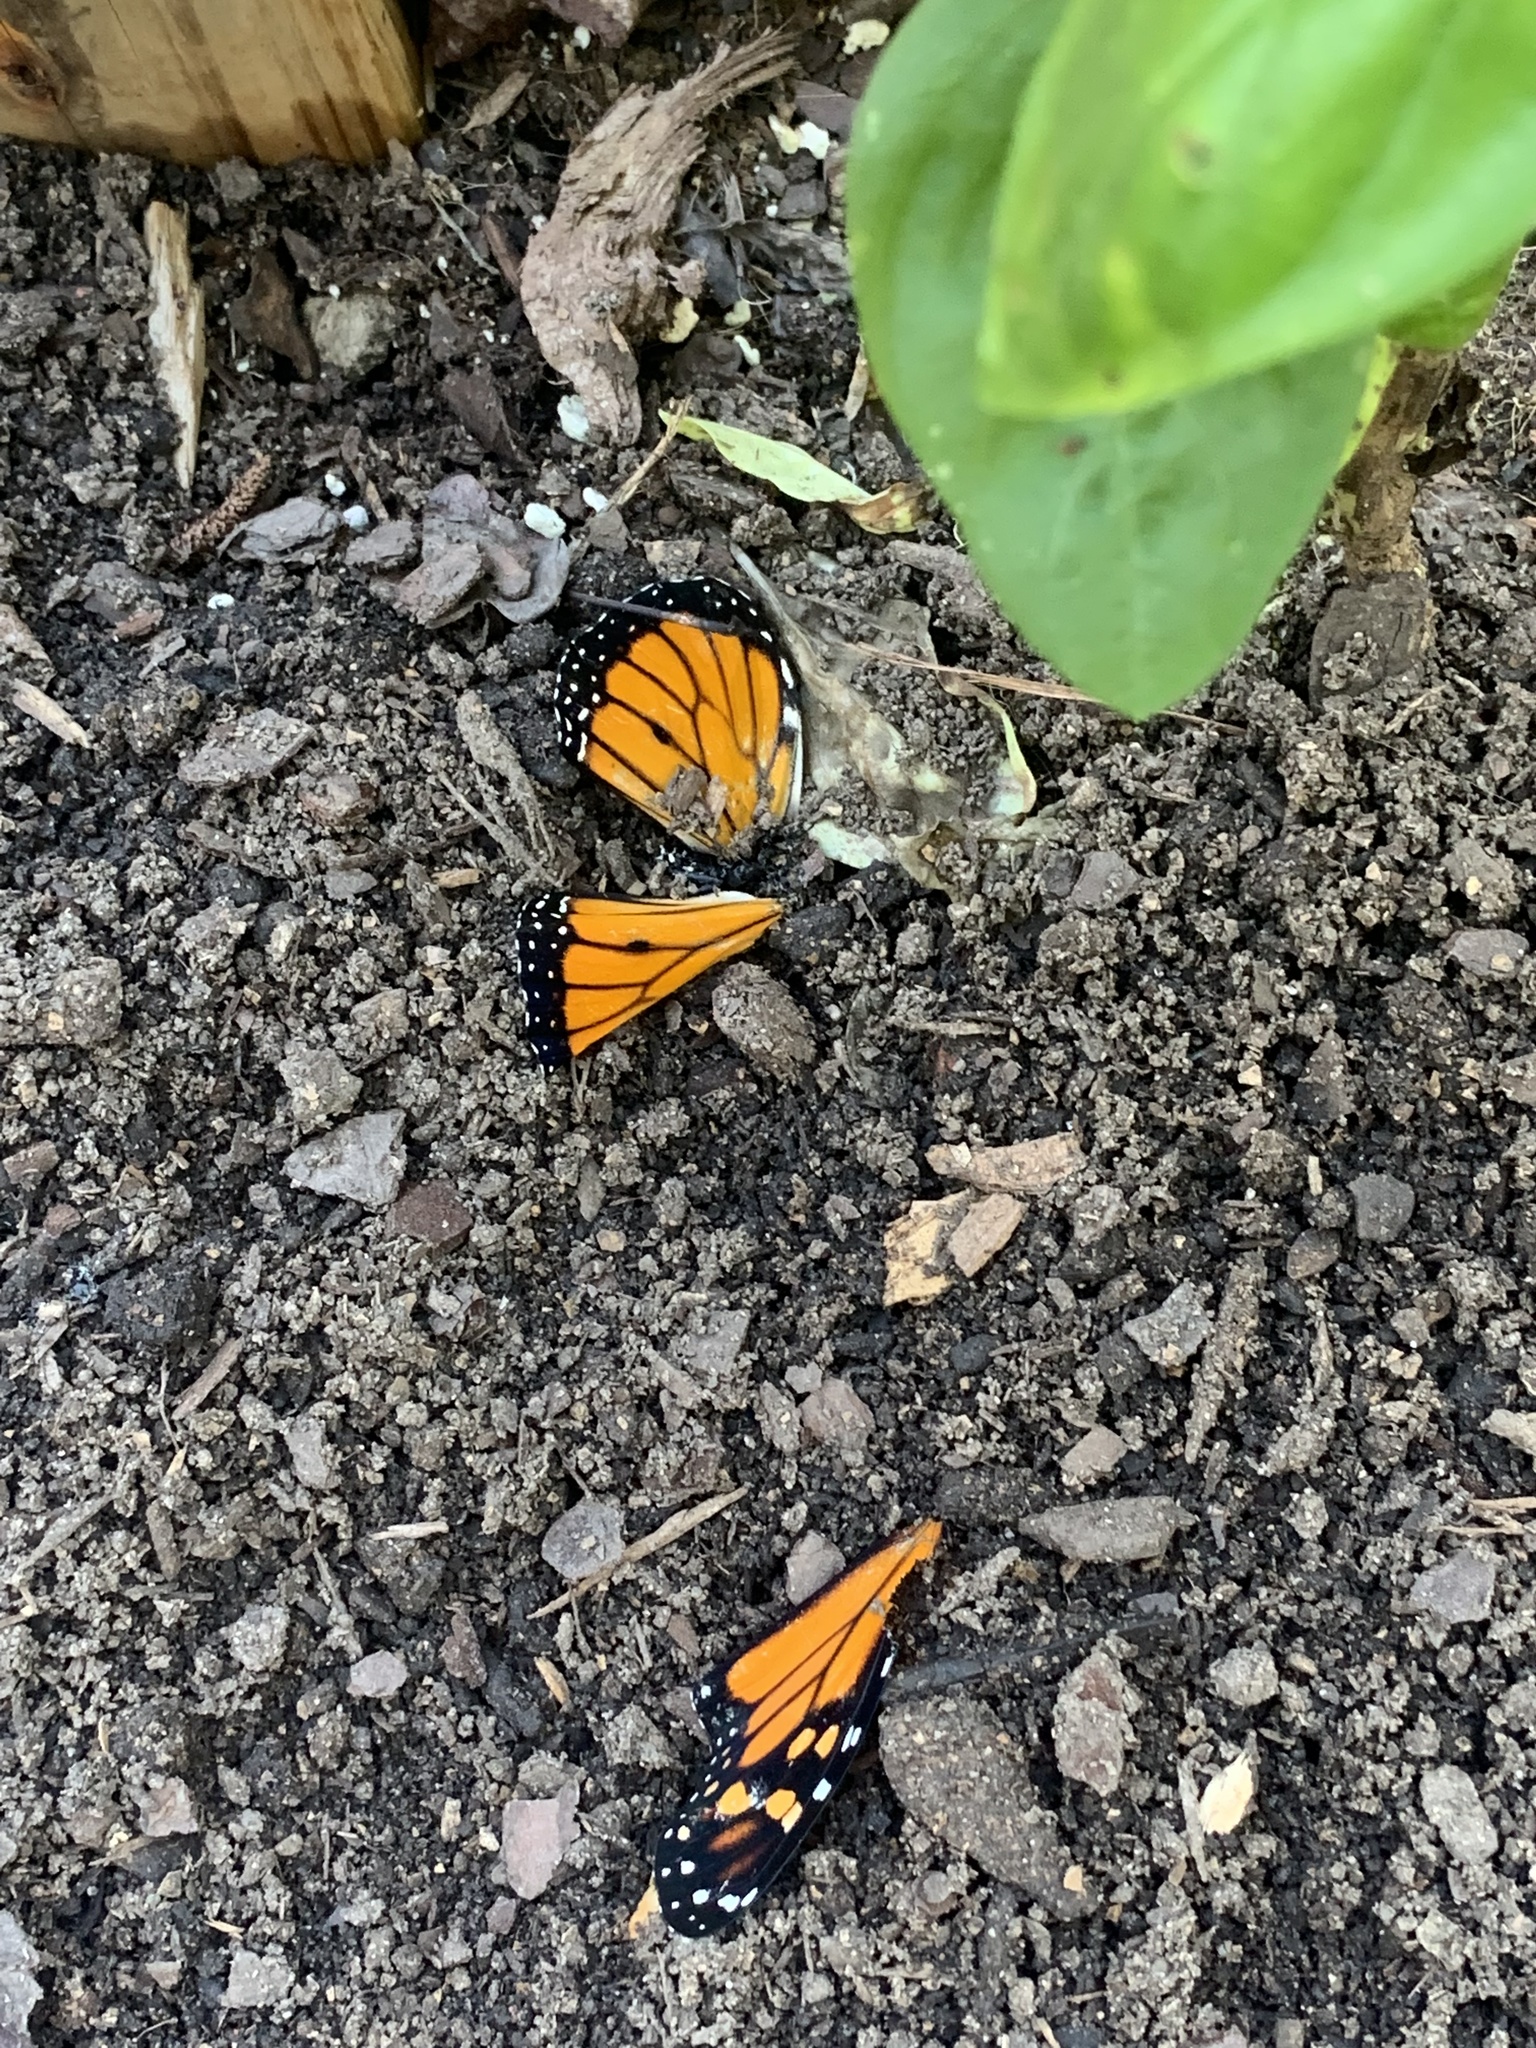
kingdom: Animalia
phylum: Arthropoda
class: Insecta
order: Lepidoptera
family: Nymphalidae
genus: Danaus
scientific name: Danaus plexippus
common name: Monarch
